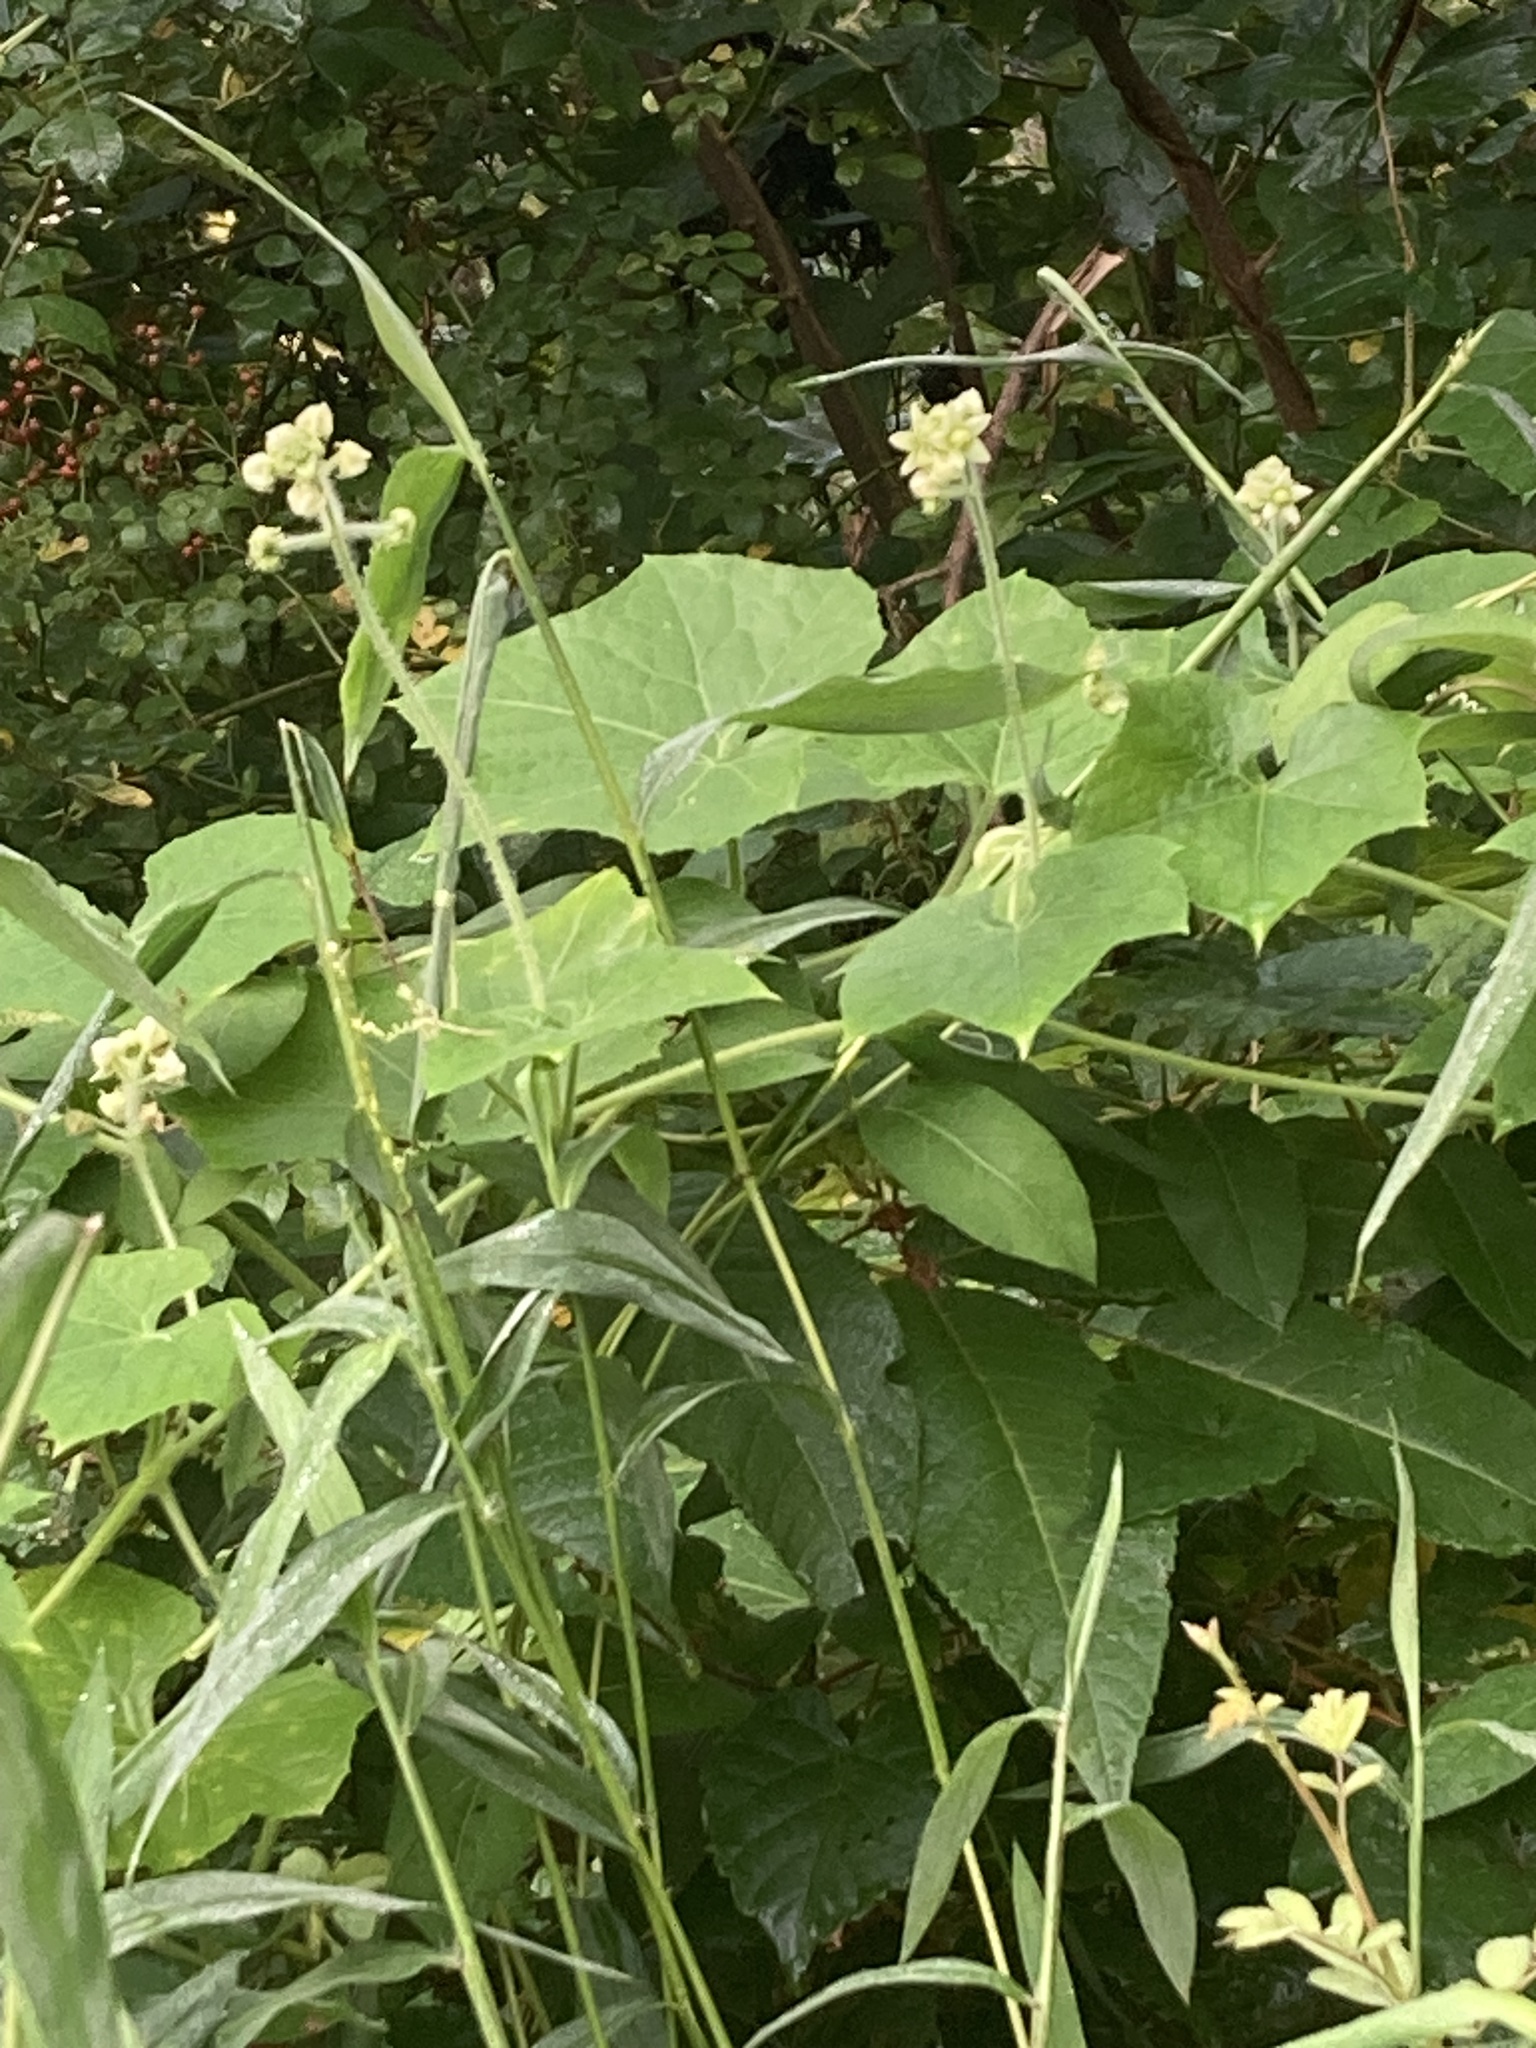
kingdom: Plantae
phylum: Tracheophyta
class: Magnoliopsida
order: Cucurbitales
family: Cucurbitaceae
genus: Sicyos
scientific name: Sicyos angulatus
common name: Angled burr cucumber
